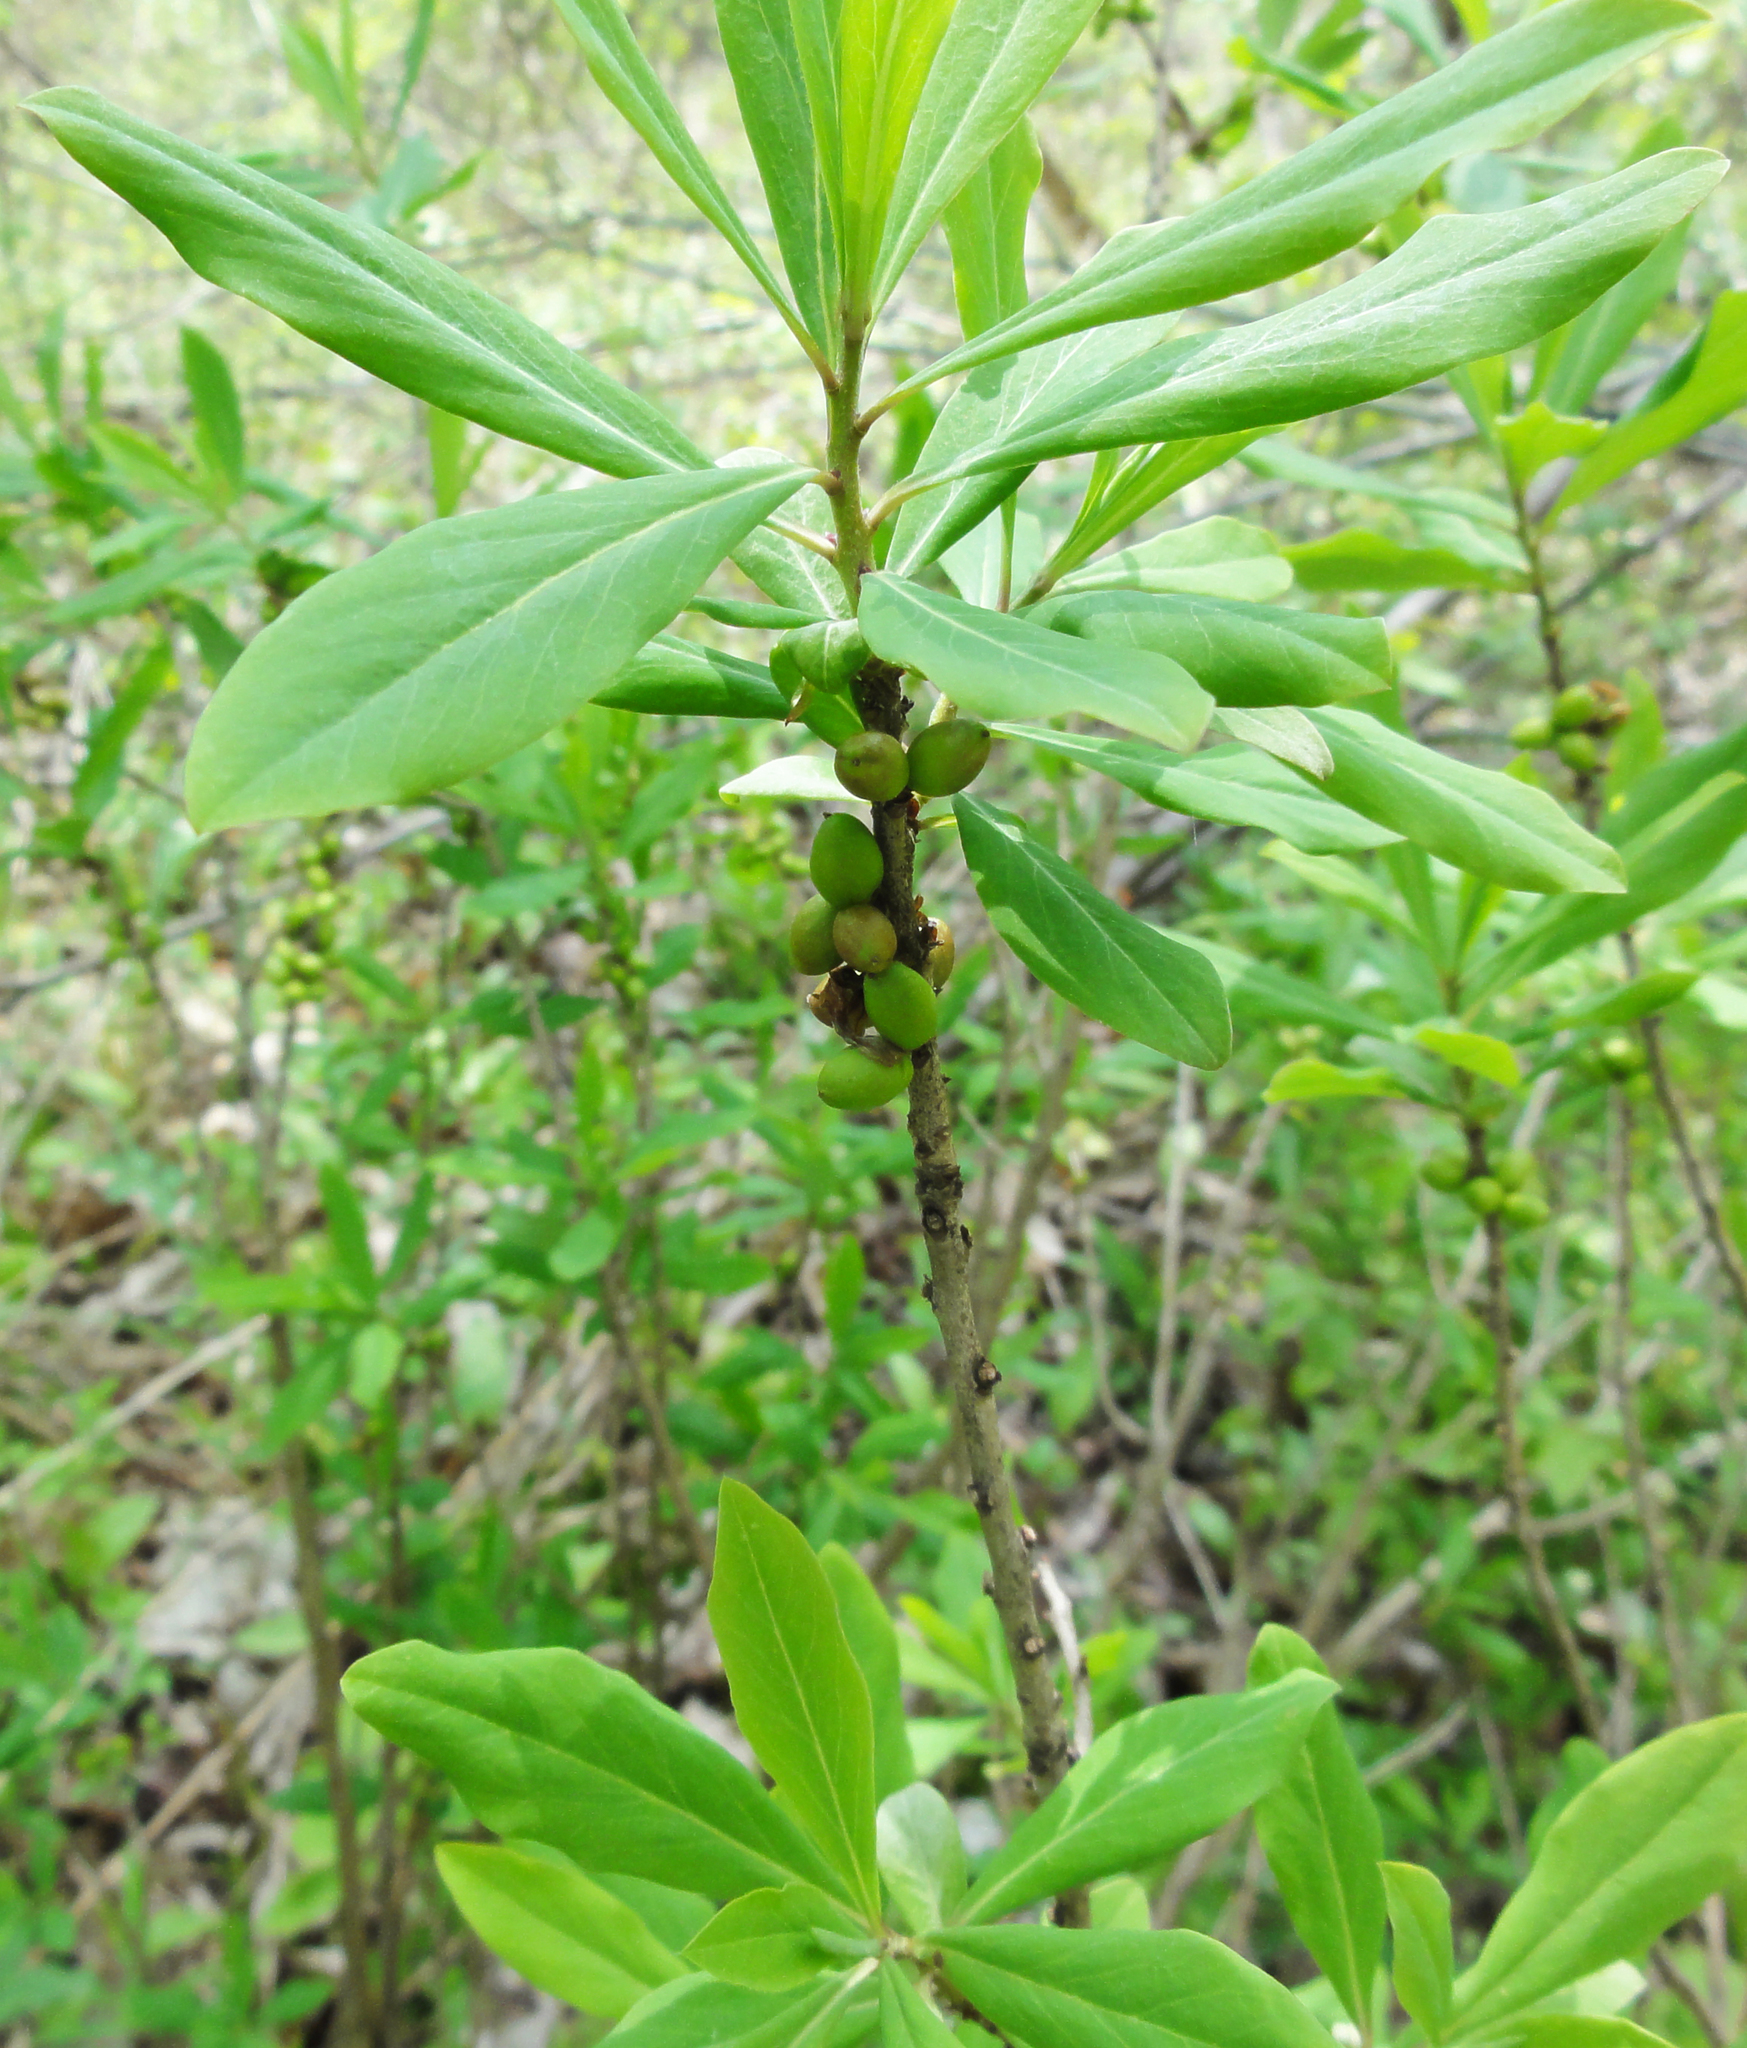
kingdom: Plantae
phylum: Tracheophyta
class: Magnoliopsida
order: Malvales
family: Thymelaeaceae
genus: Daphne
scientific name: Daphne mezereum
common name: Mezereon
